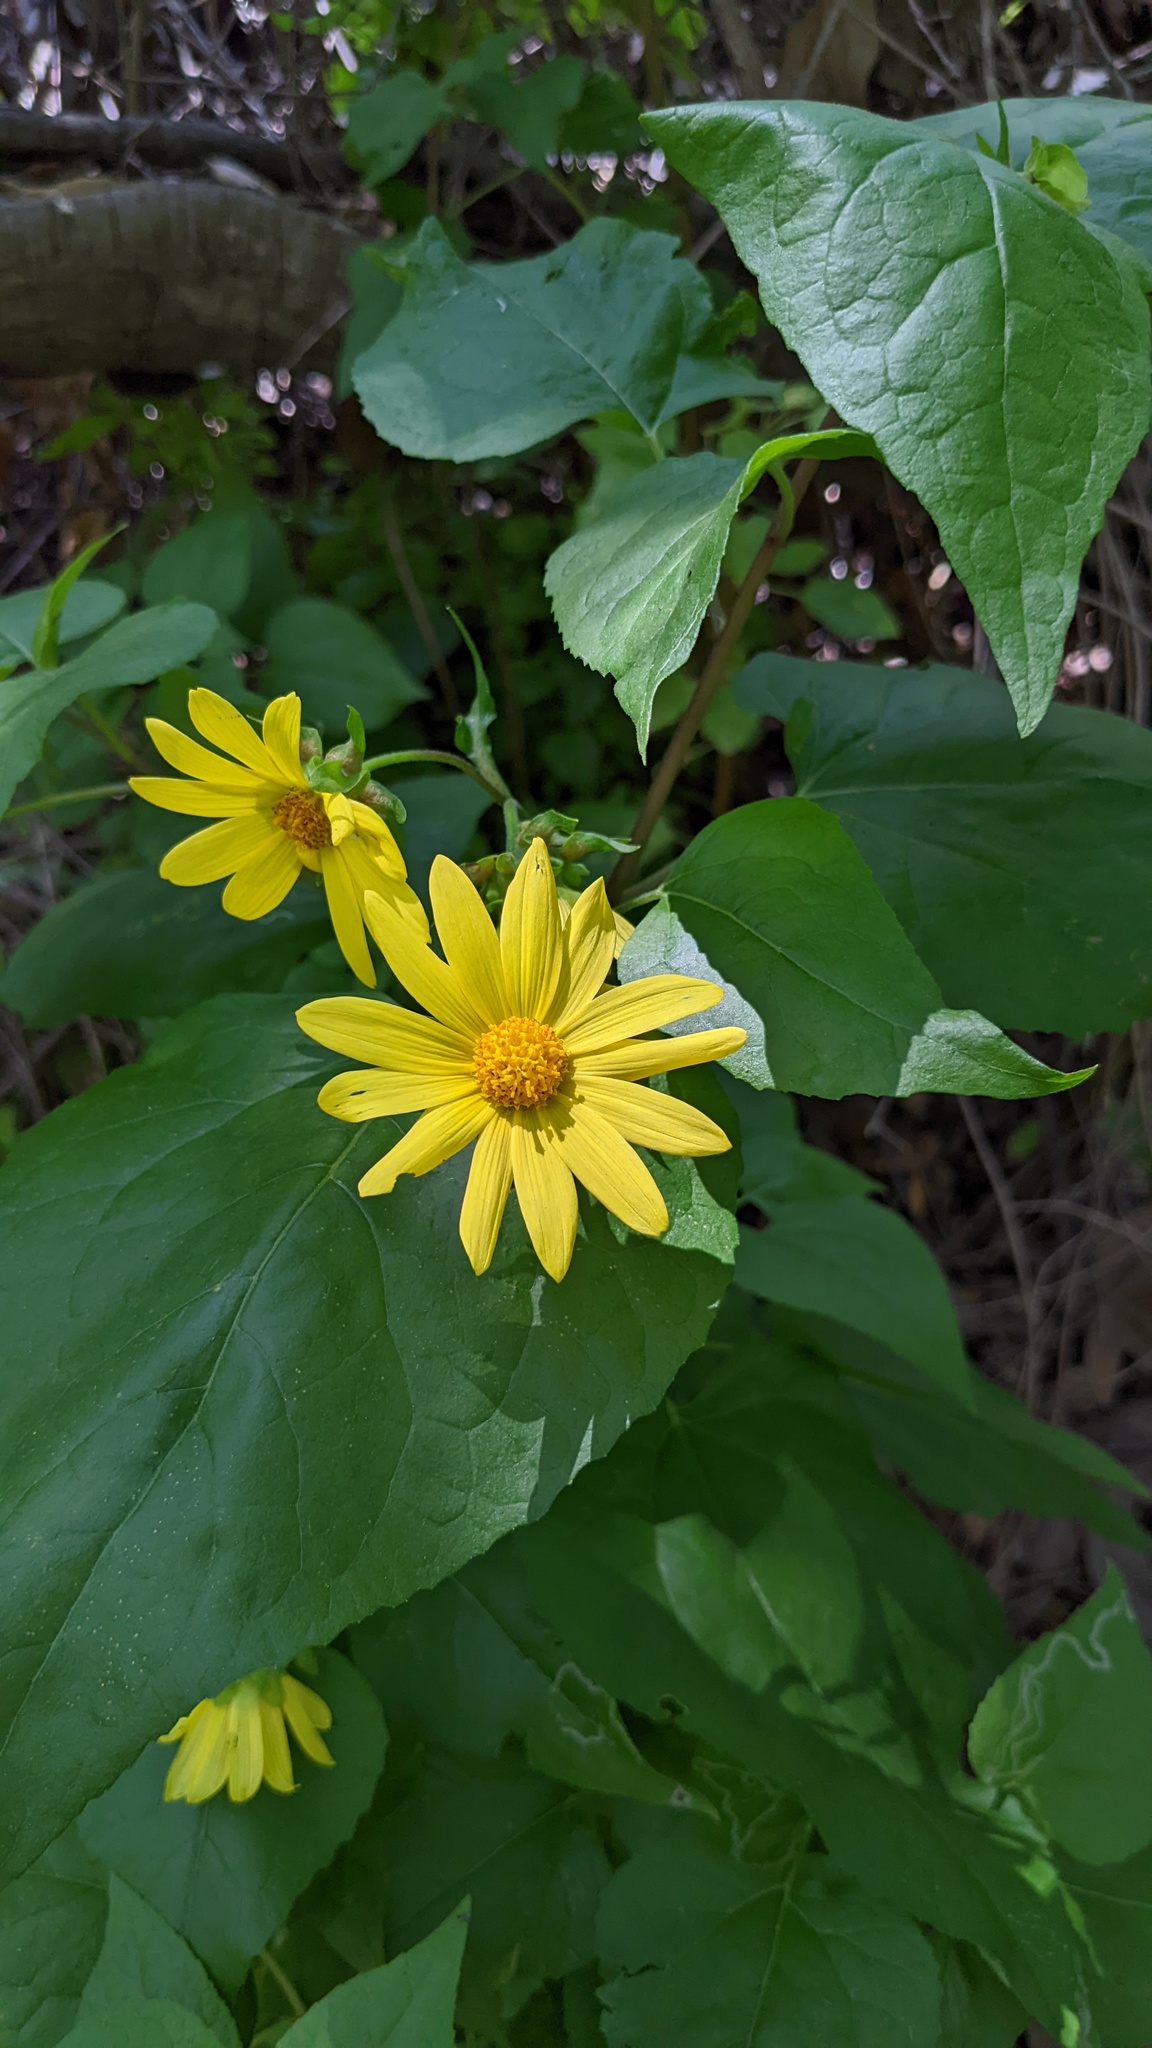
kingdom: Plantae
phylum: Tracheophyta
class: Magnoliopsida
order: Asterales
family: Asteraceae
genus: Venegasia
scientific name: Venegasia carpesioides
